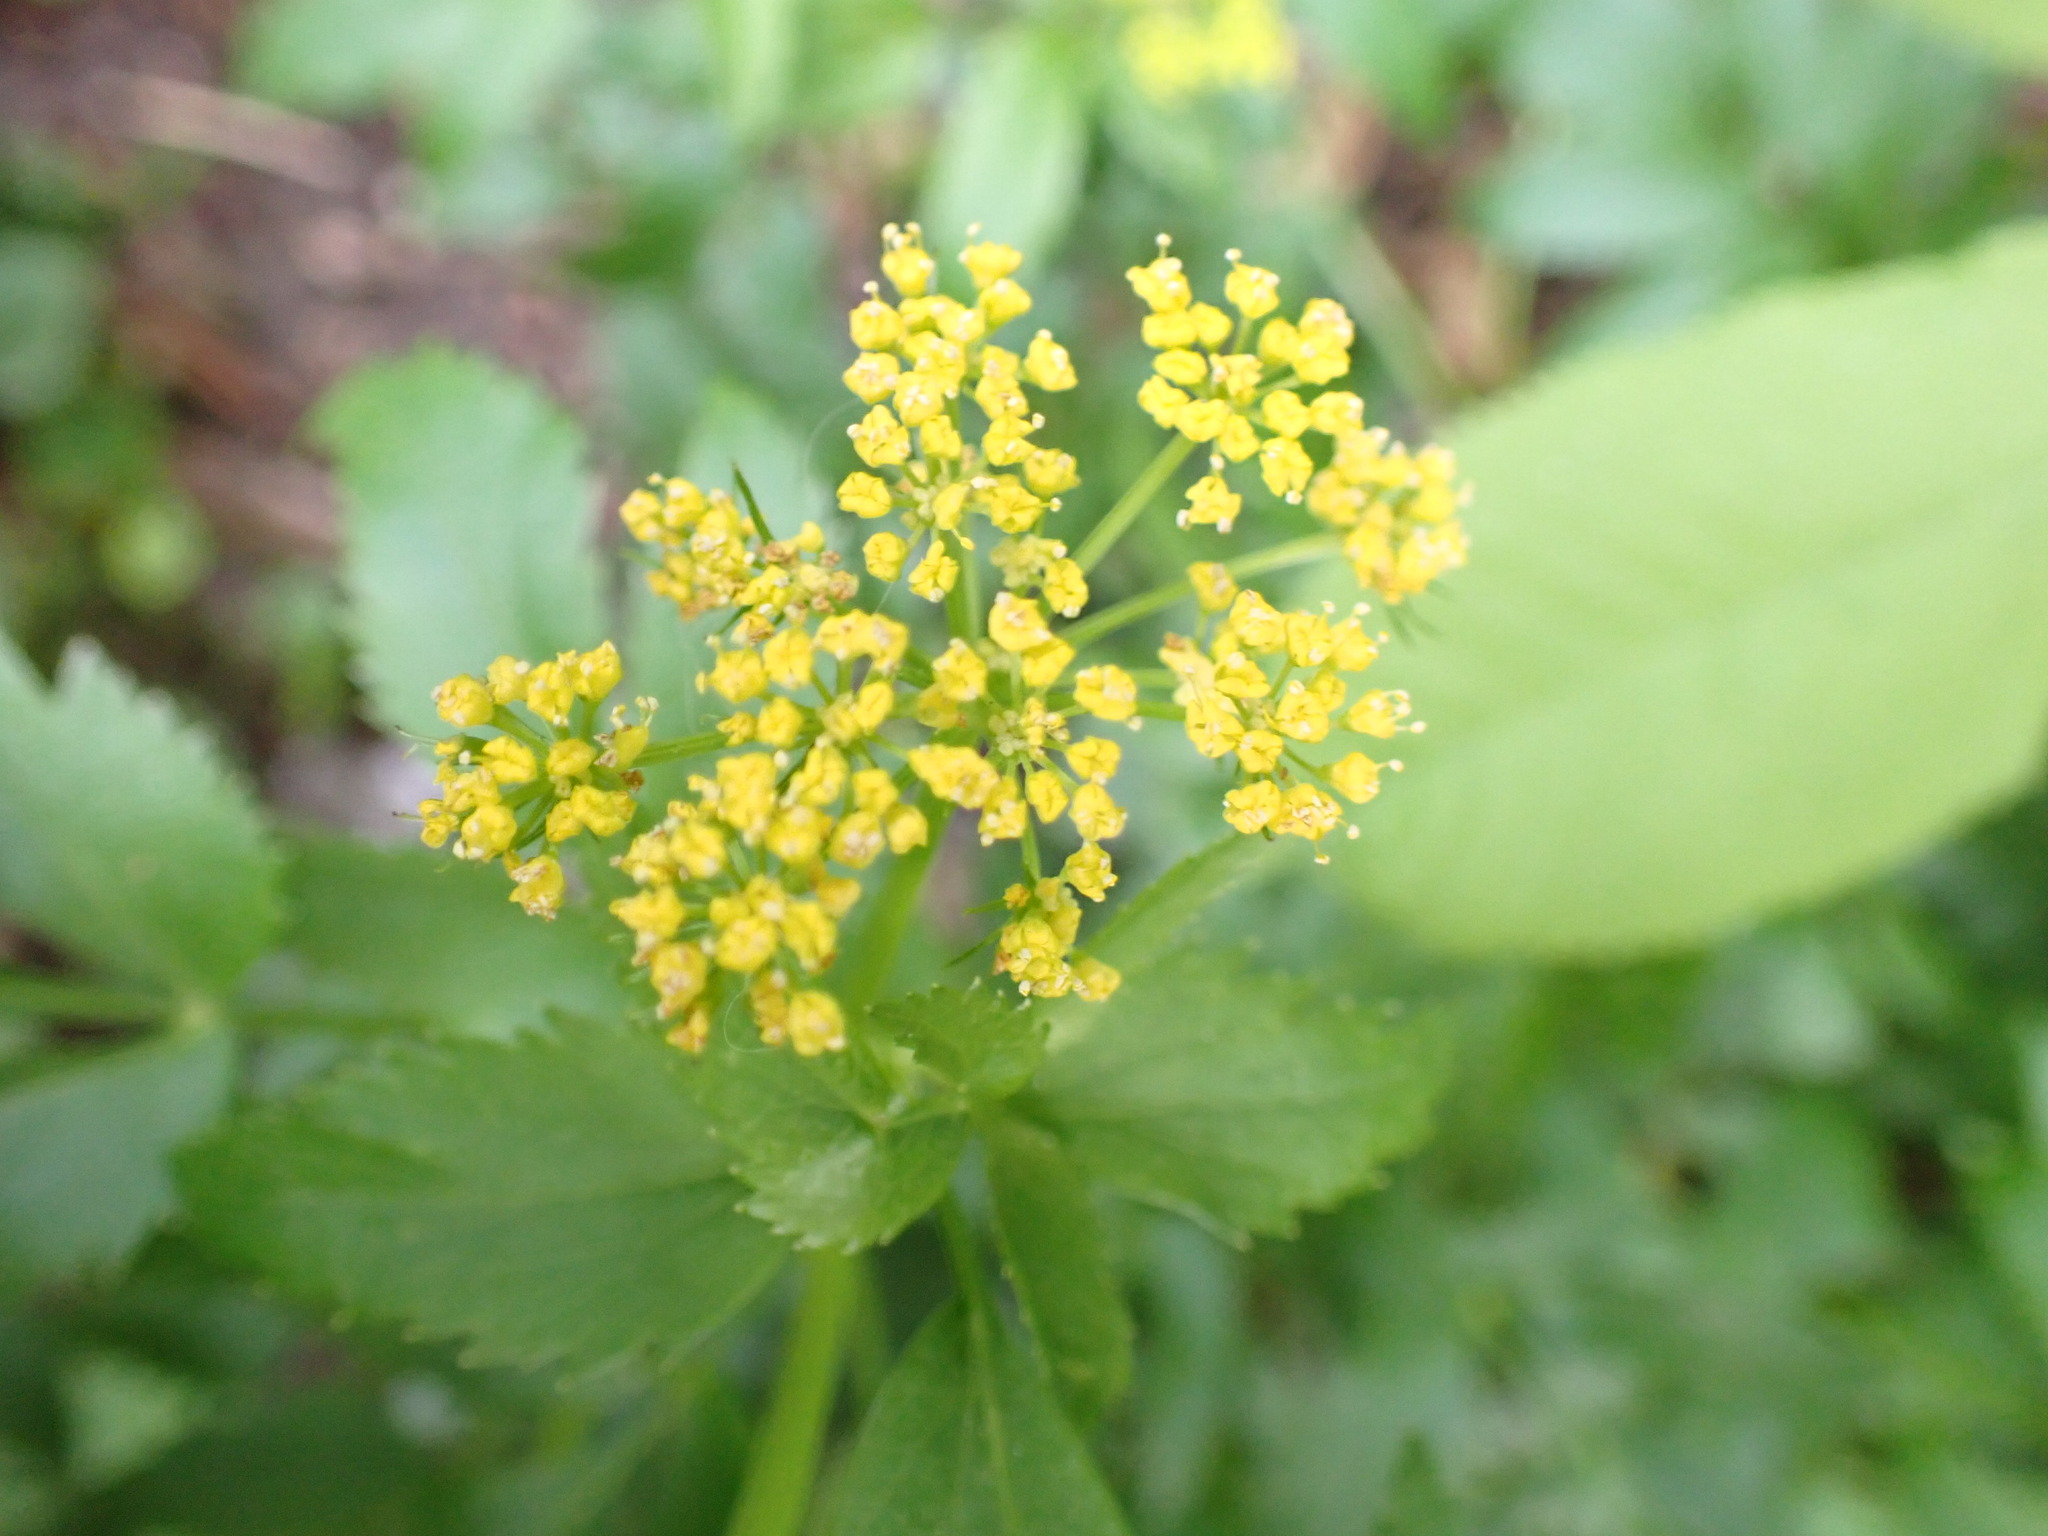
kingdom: Plantae
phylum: Tracheophyta
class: Magnoliopsida
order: Apiales
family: Apiaceae
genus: Zizia
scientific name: Zizia aurea
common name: Golden alexanders
